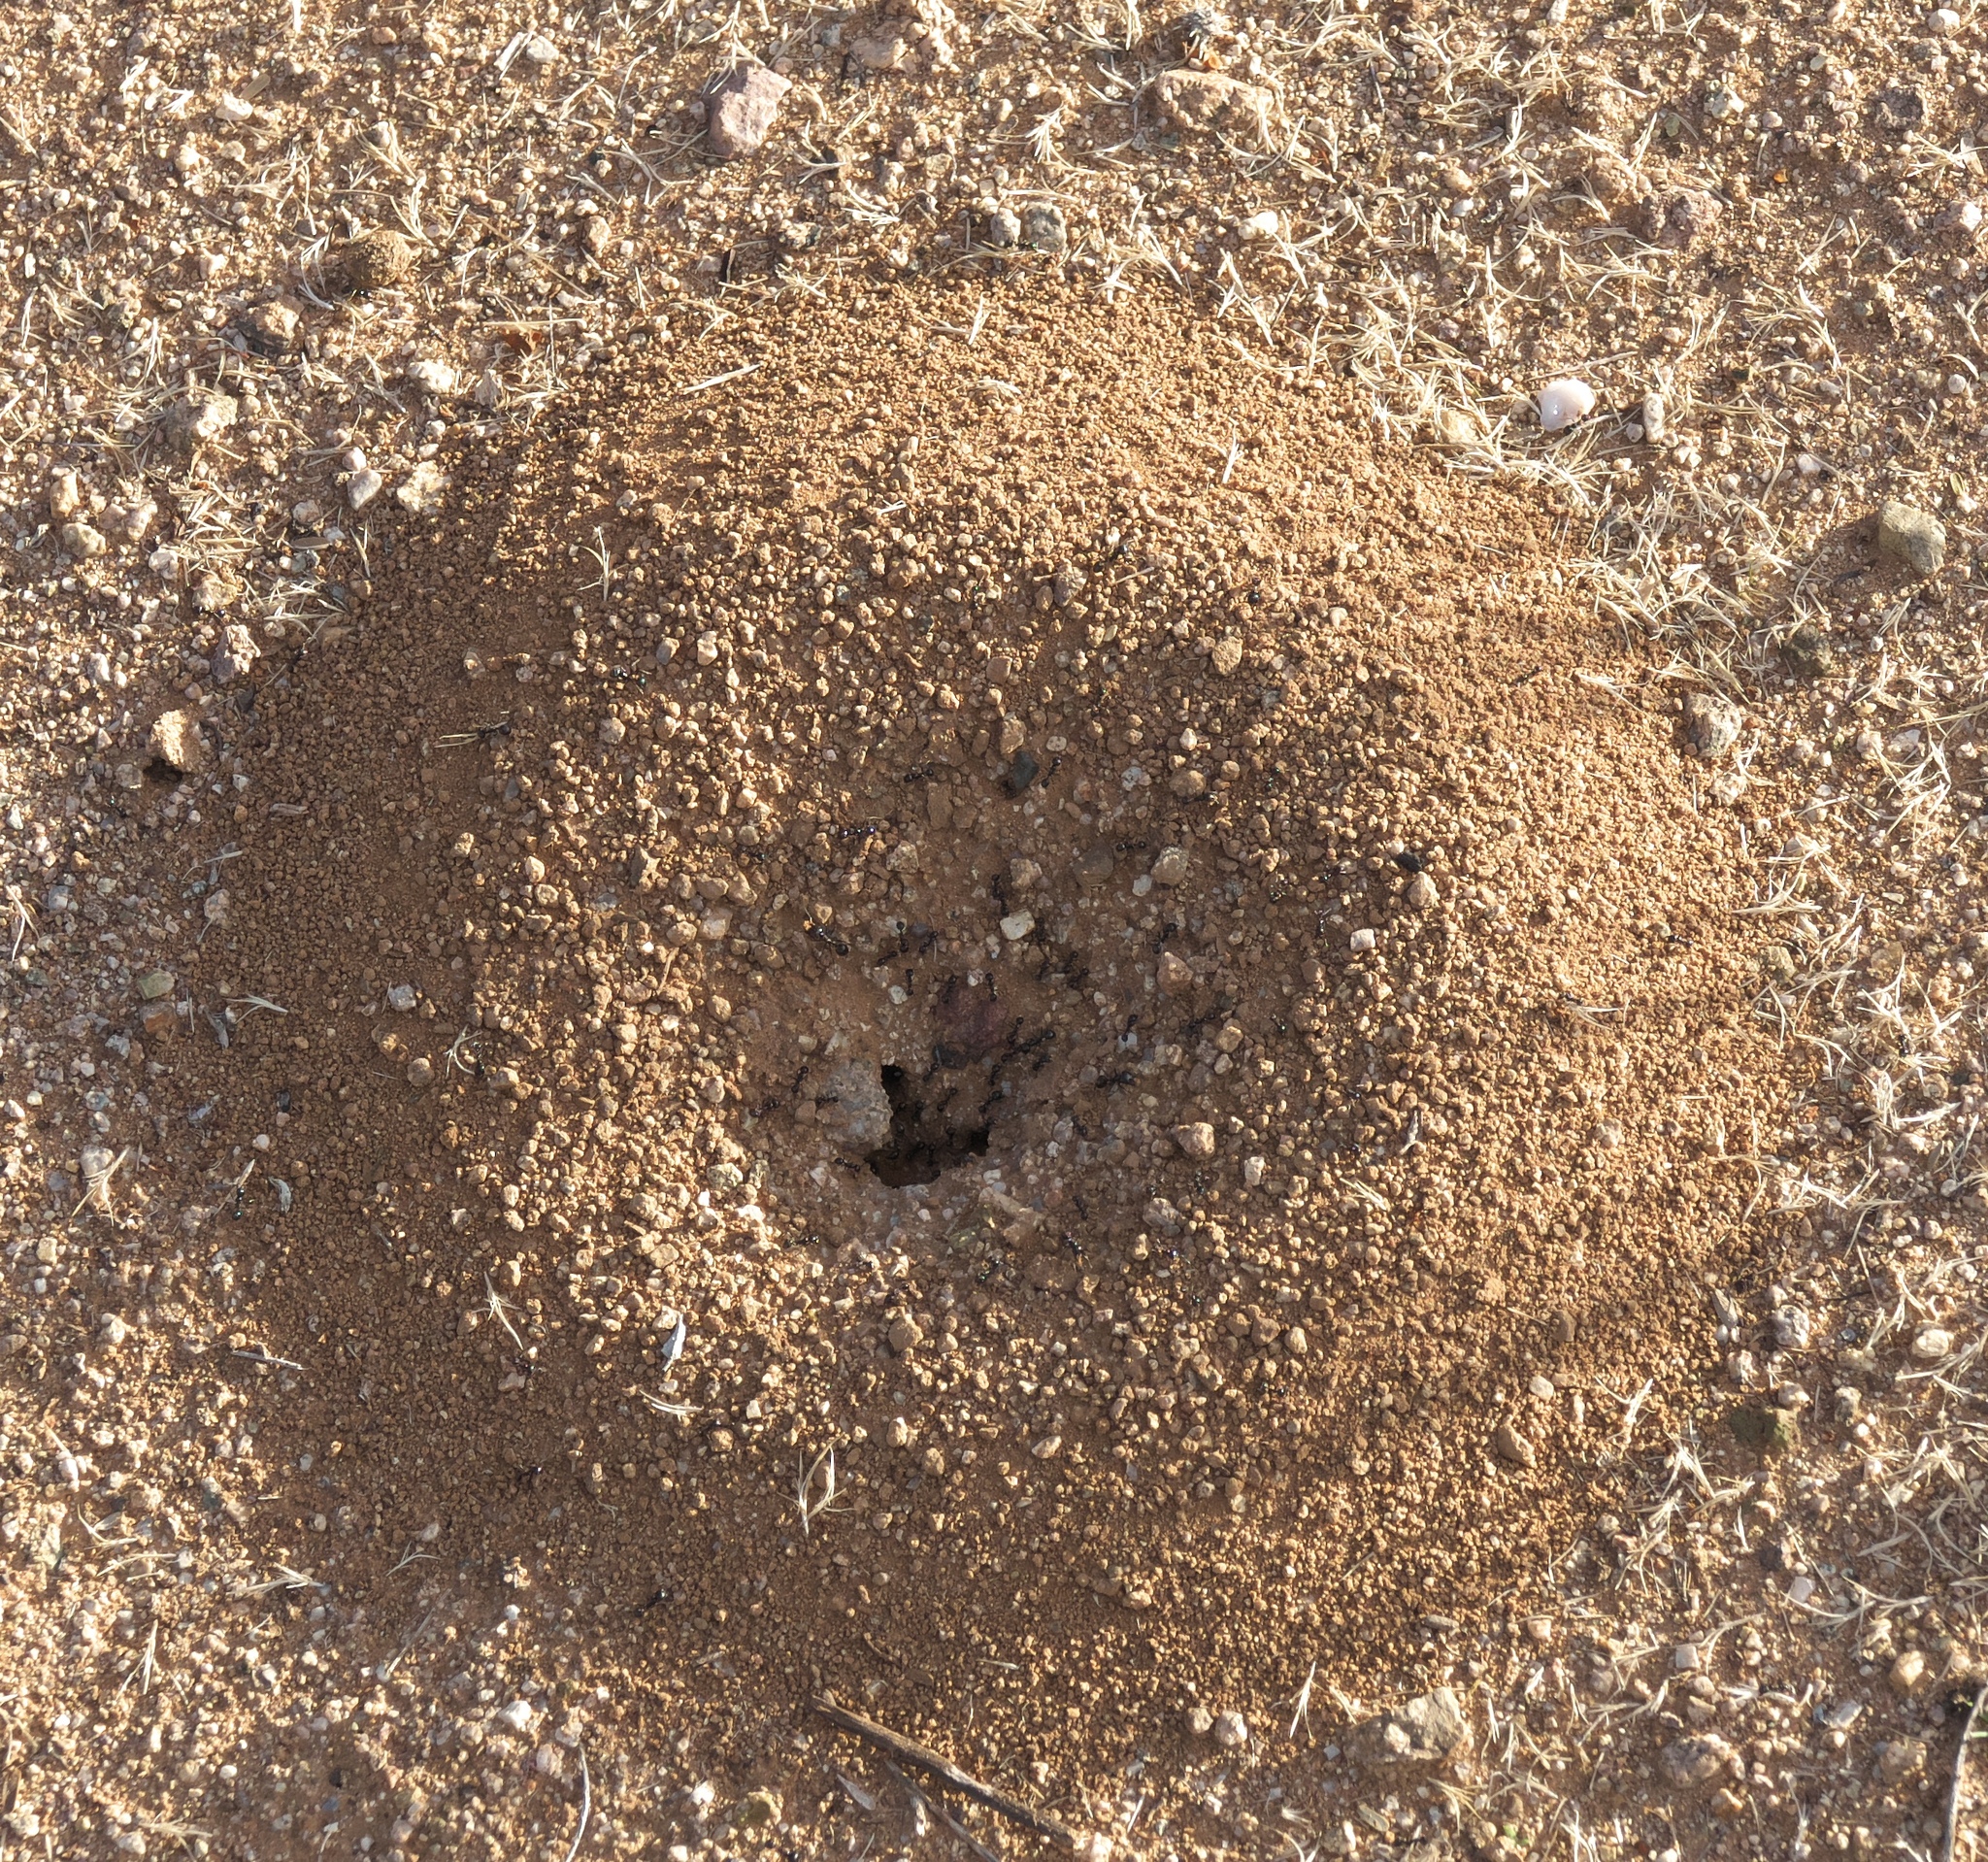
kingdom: Animalia
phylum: Arthropoda
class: Insecta
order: Hymenoptera
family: Formicidae
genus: Messor
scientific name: Messor pergandei
